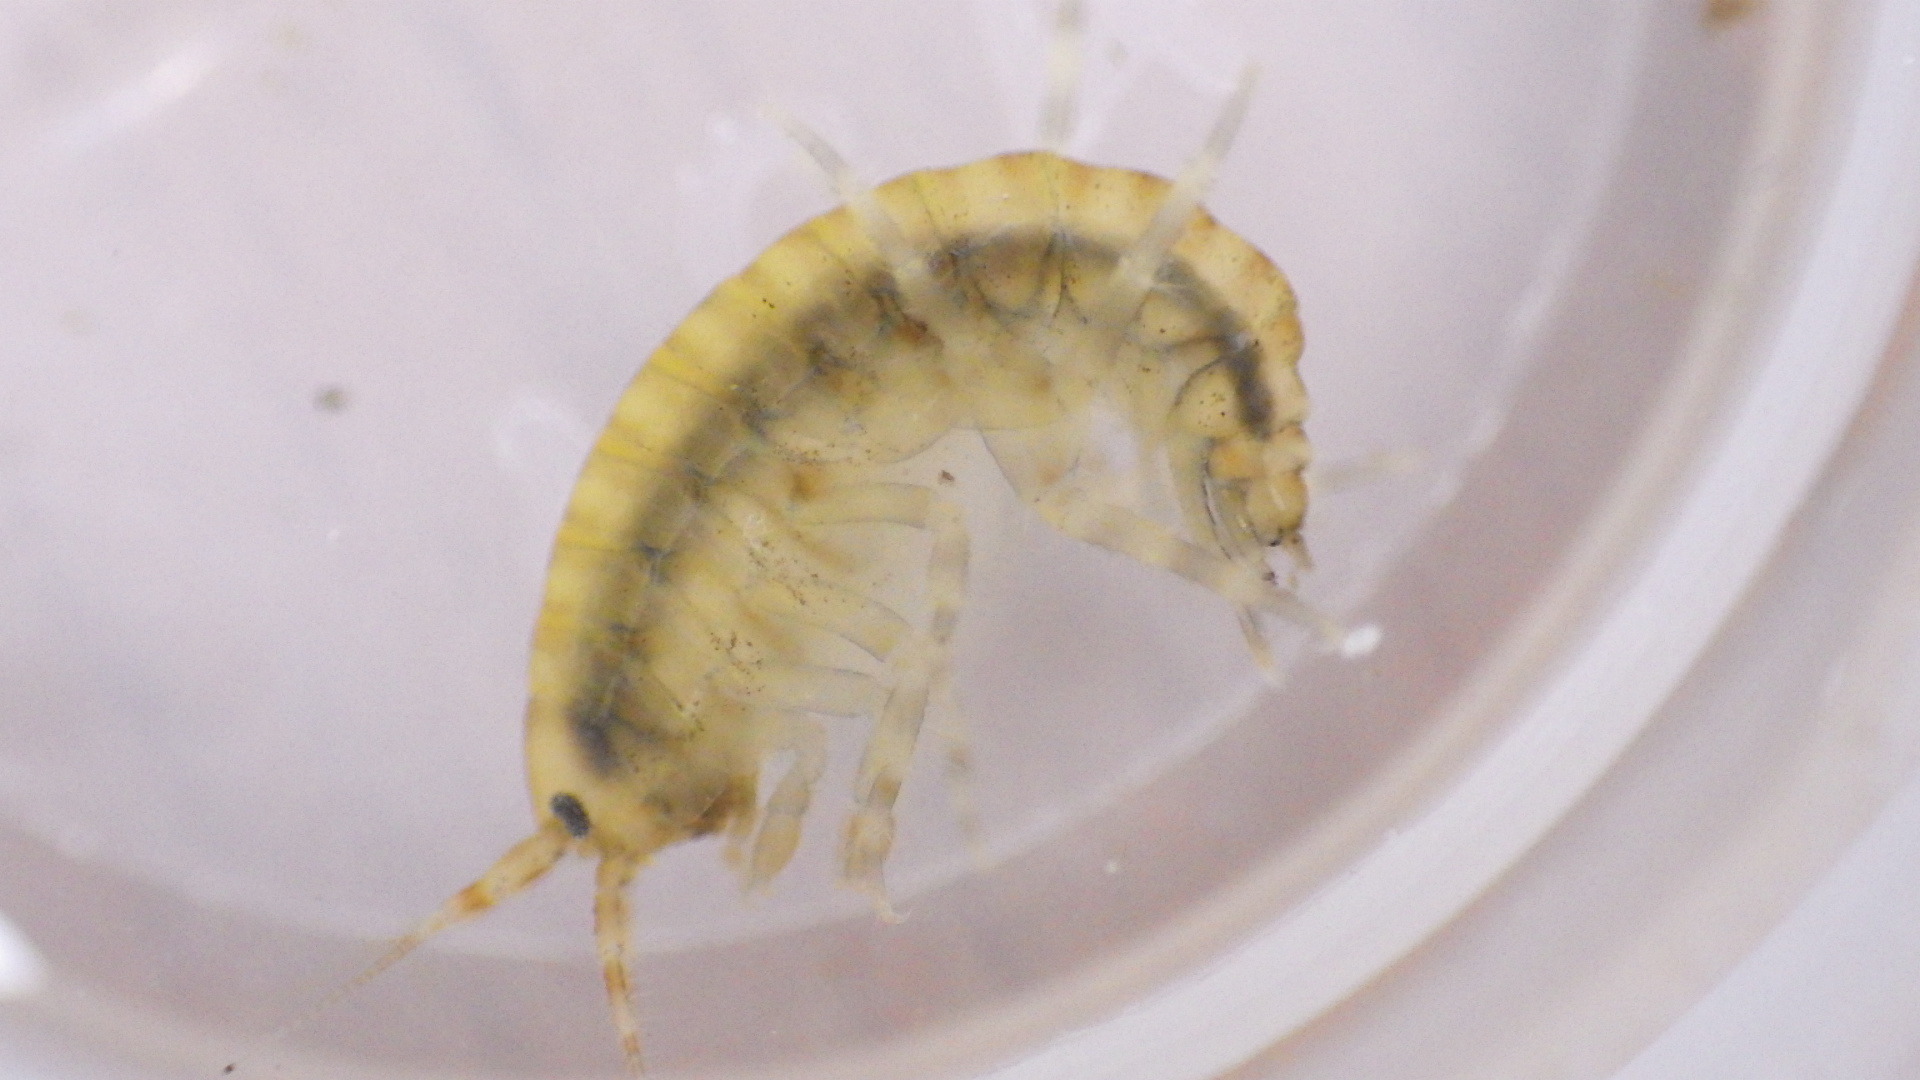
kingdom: Animalia
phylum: Arthropoda
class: Malacostraca
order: Amphipoda
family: Gammaridae
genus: Gammarus
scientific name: Gammarus fasciatus
